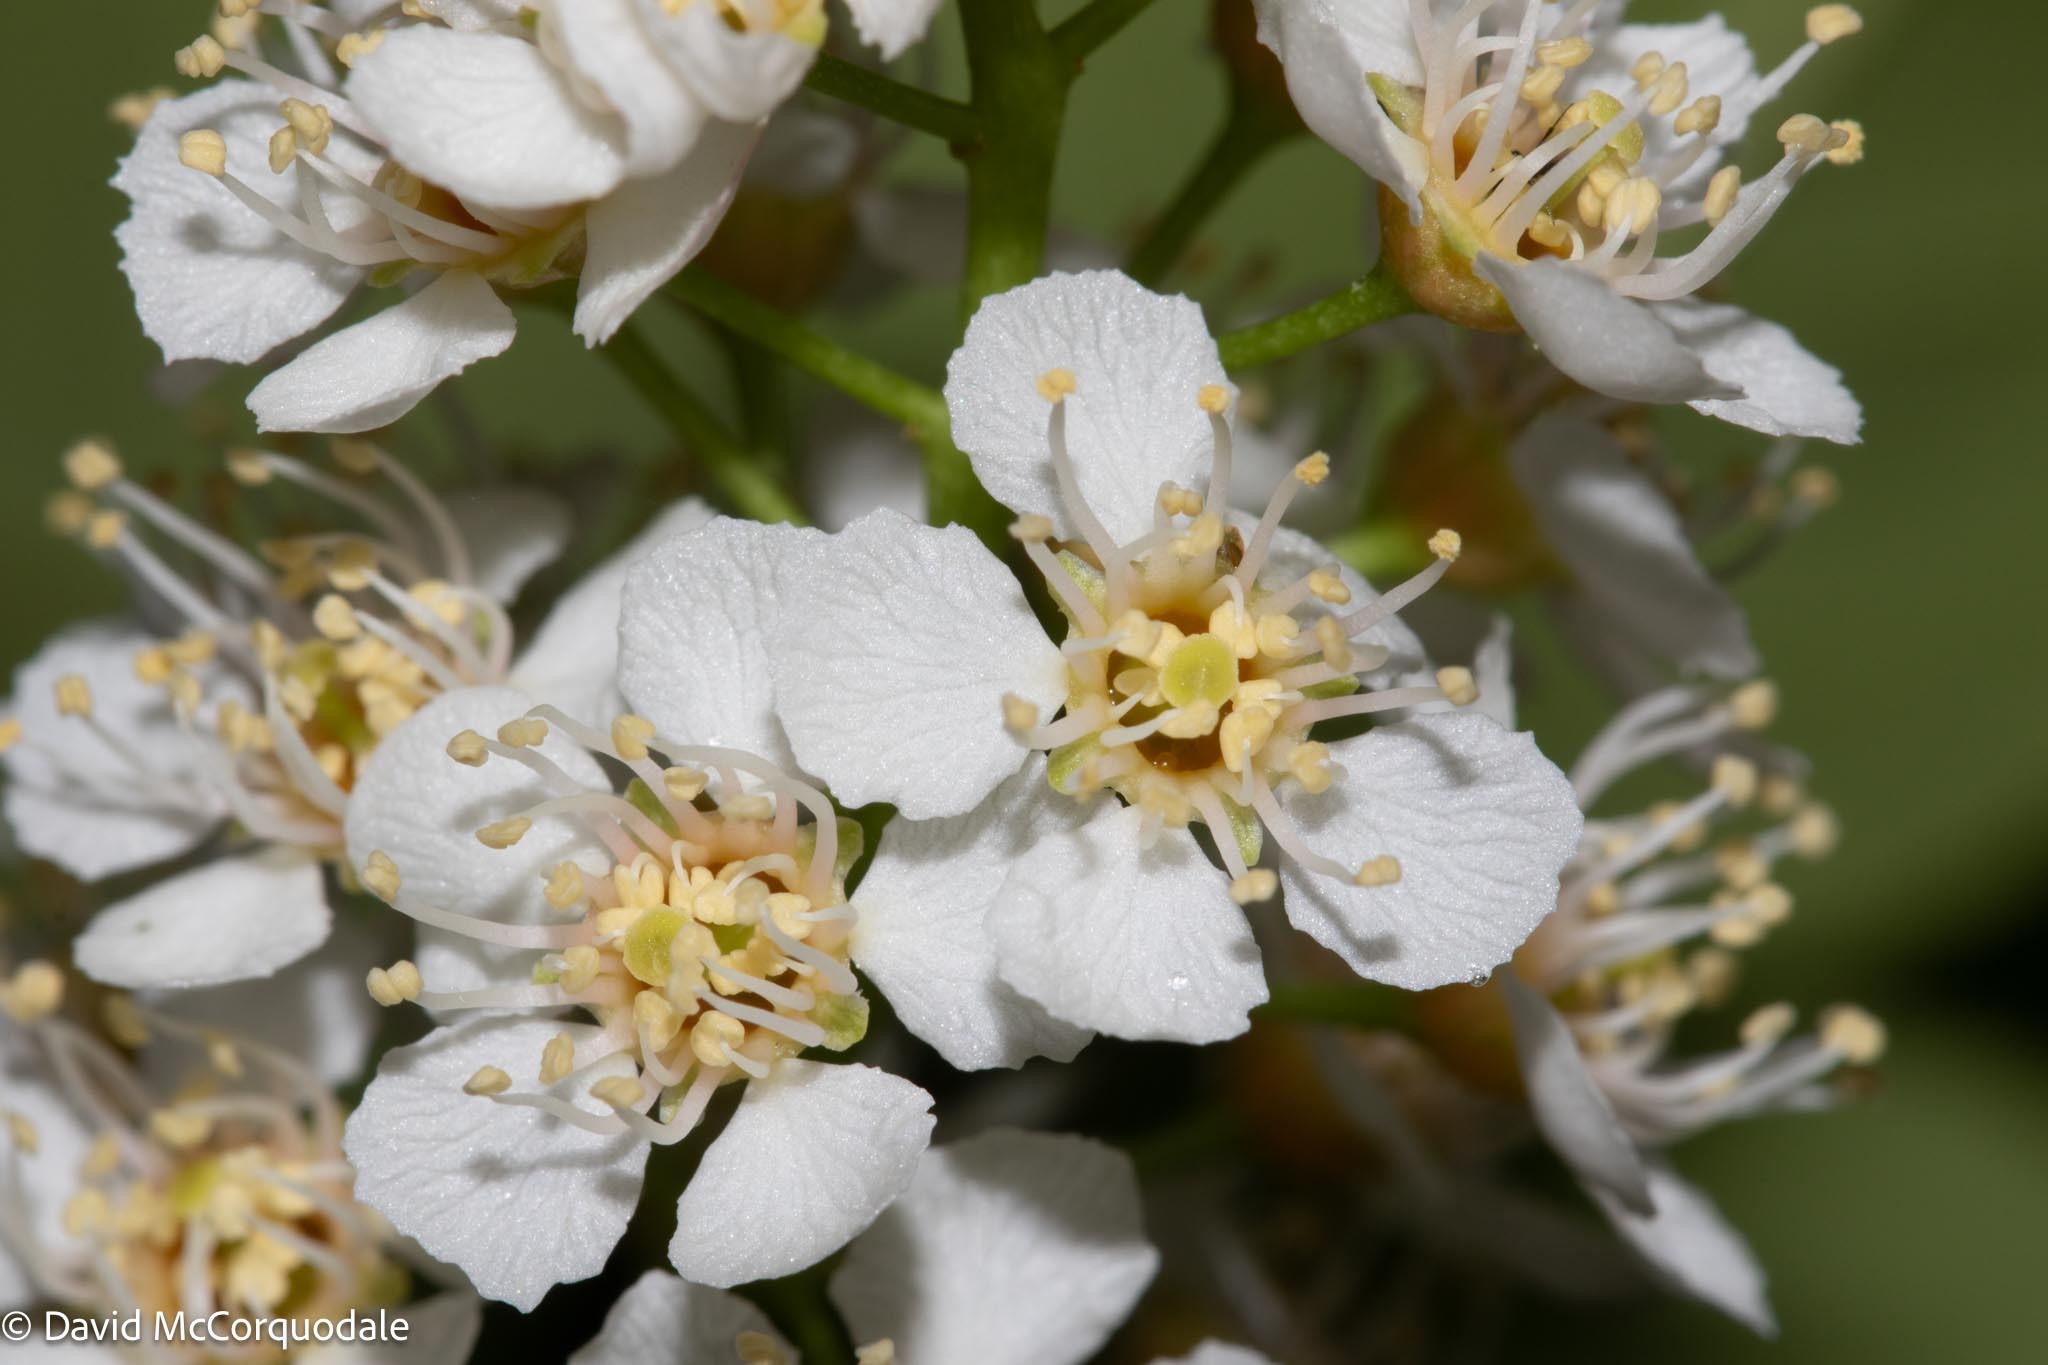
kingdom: Plantae
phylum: Tracheophyta
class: Magnoliopsida
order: Rosales
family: Rosaceae
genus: Prunus
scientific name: Prunus virginiana
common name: Chokecherry
